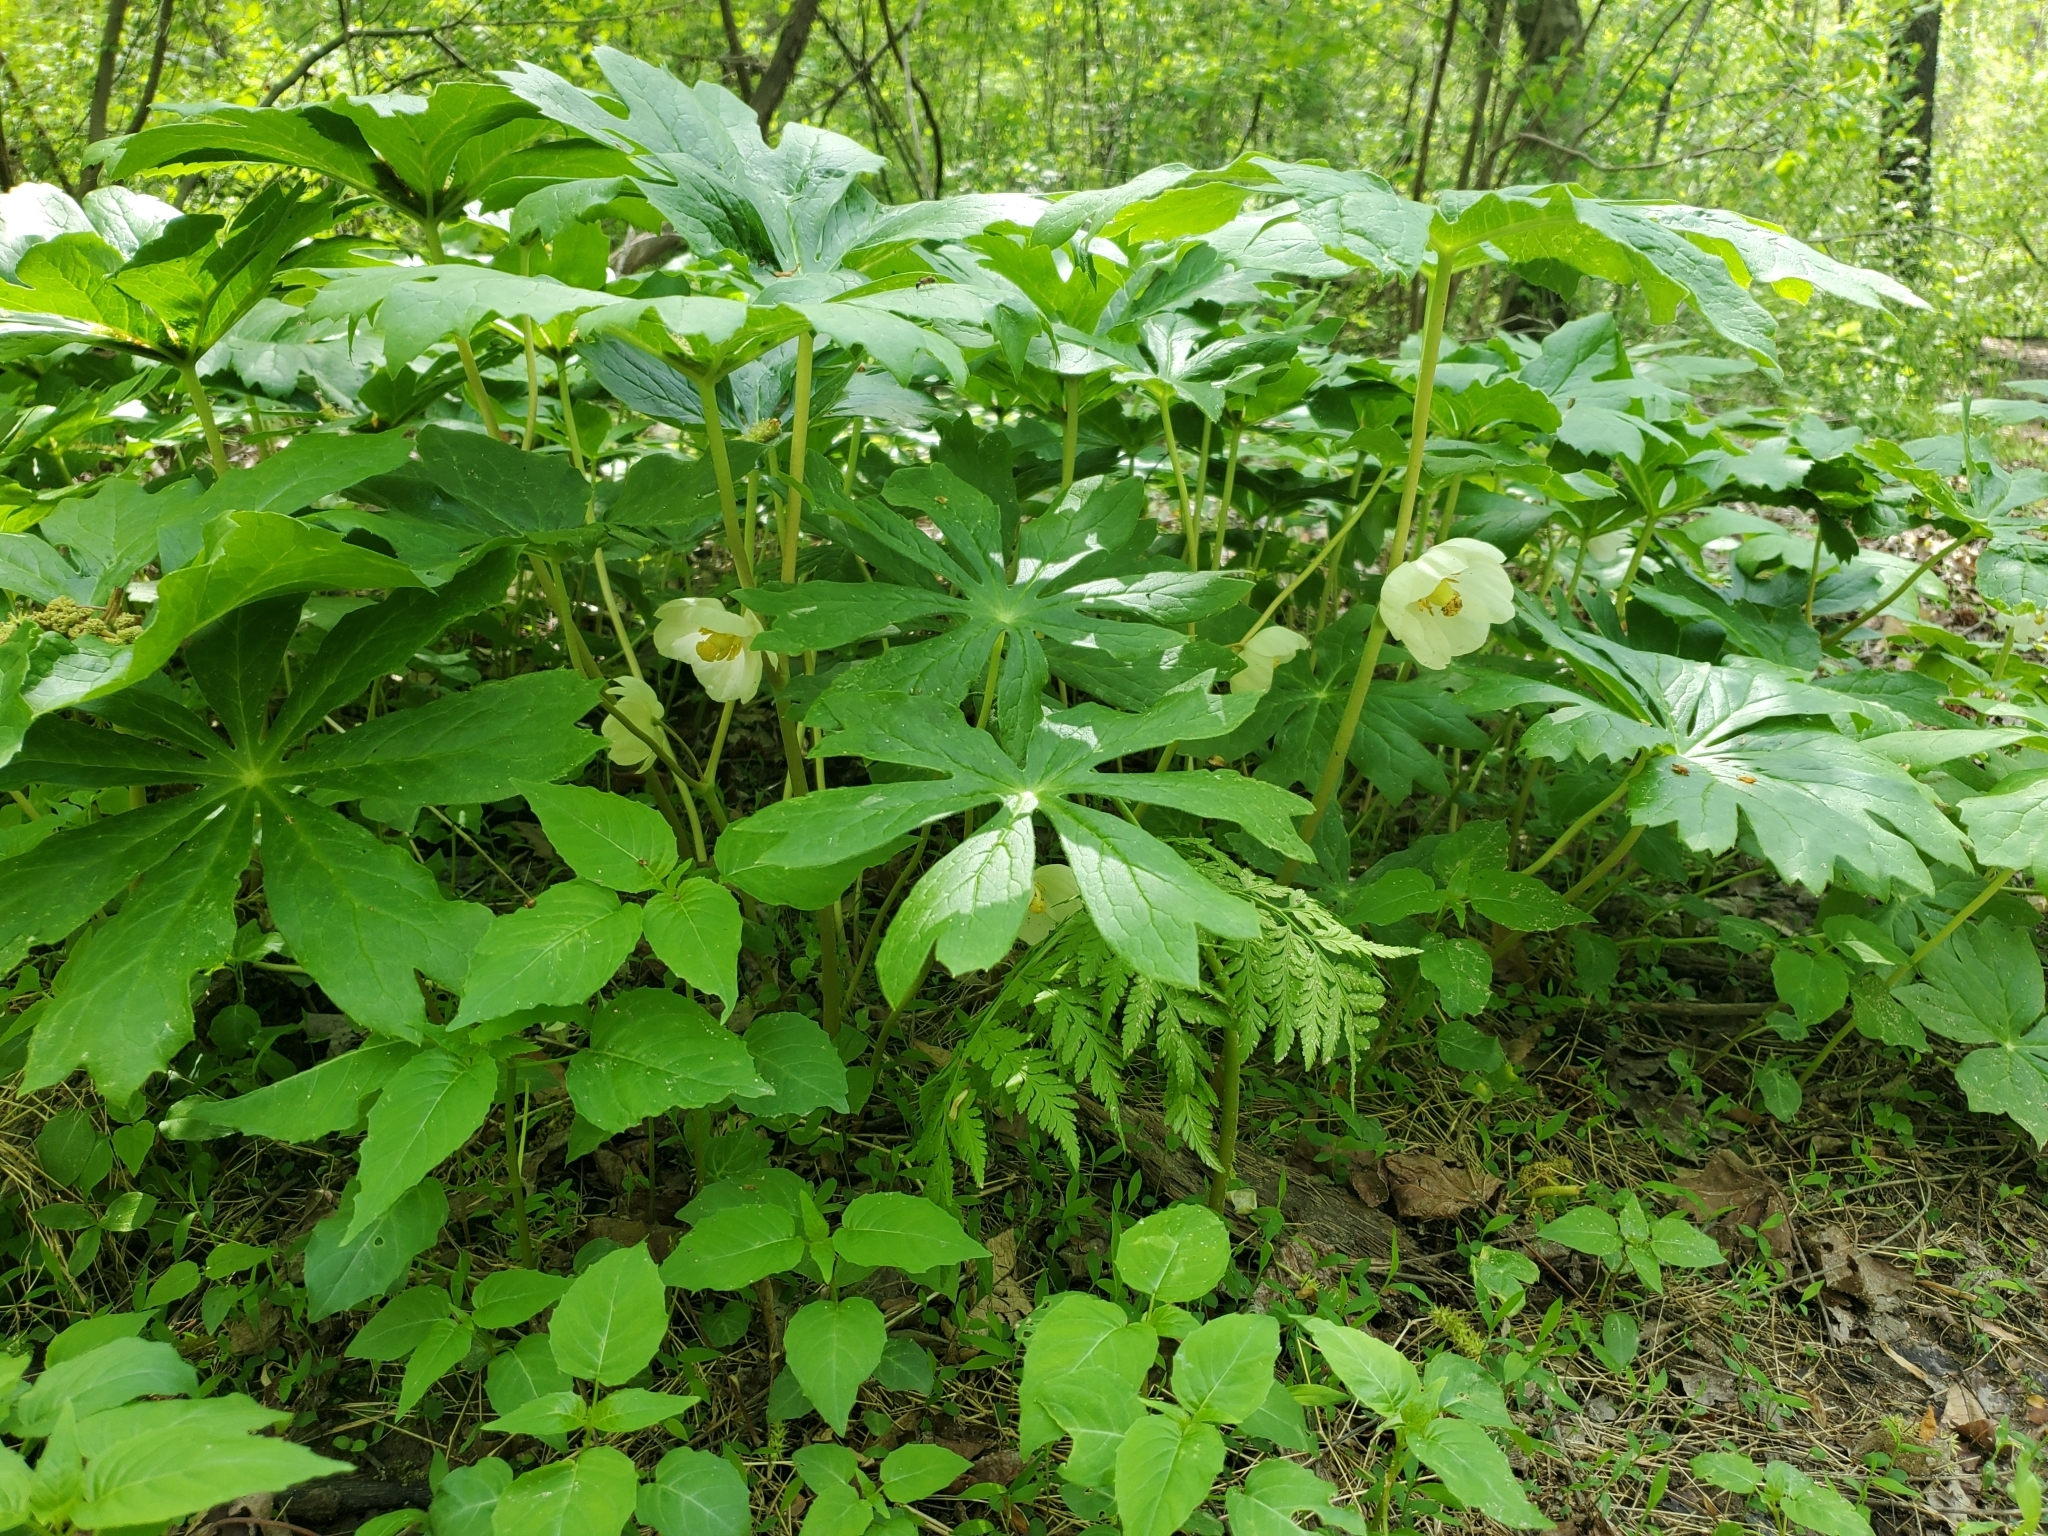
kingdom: Plantae
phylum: Tracheophyta
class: Magnoliopsida
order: Ranunculales
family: Berberidaceae
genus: Podophyllum
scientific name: Podophyllum peltatum
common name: Wild mandrake
